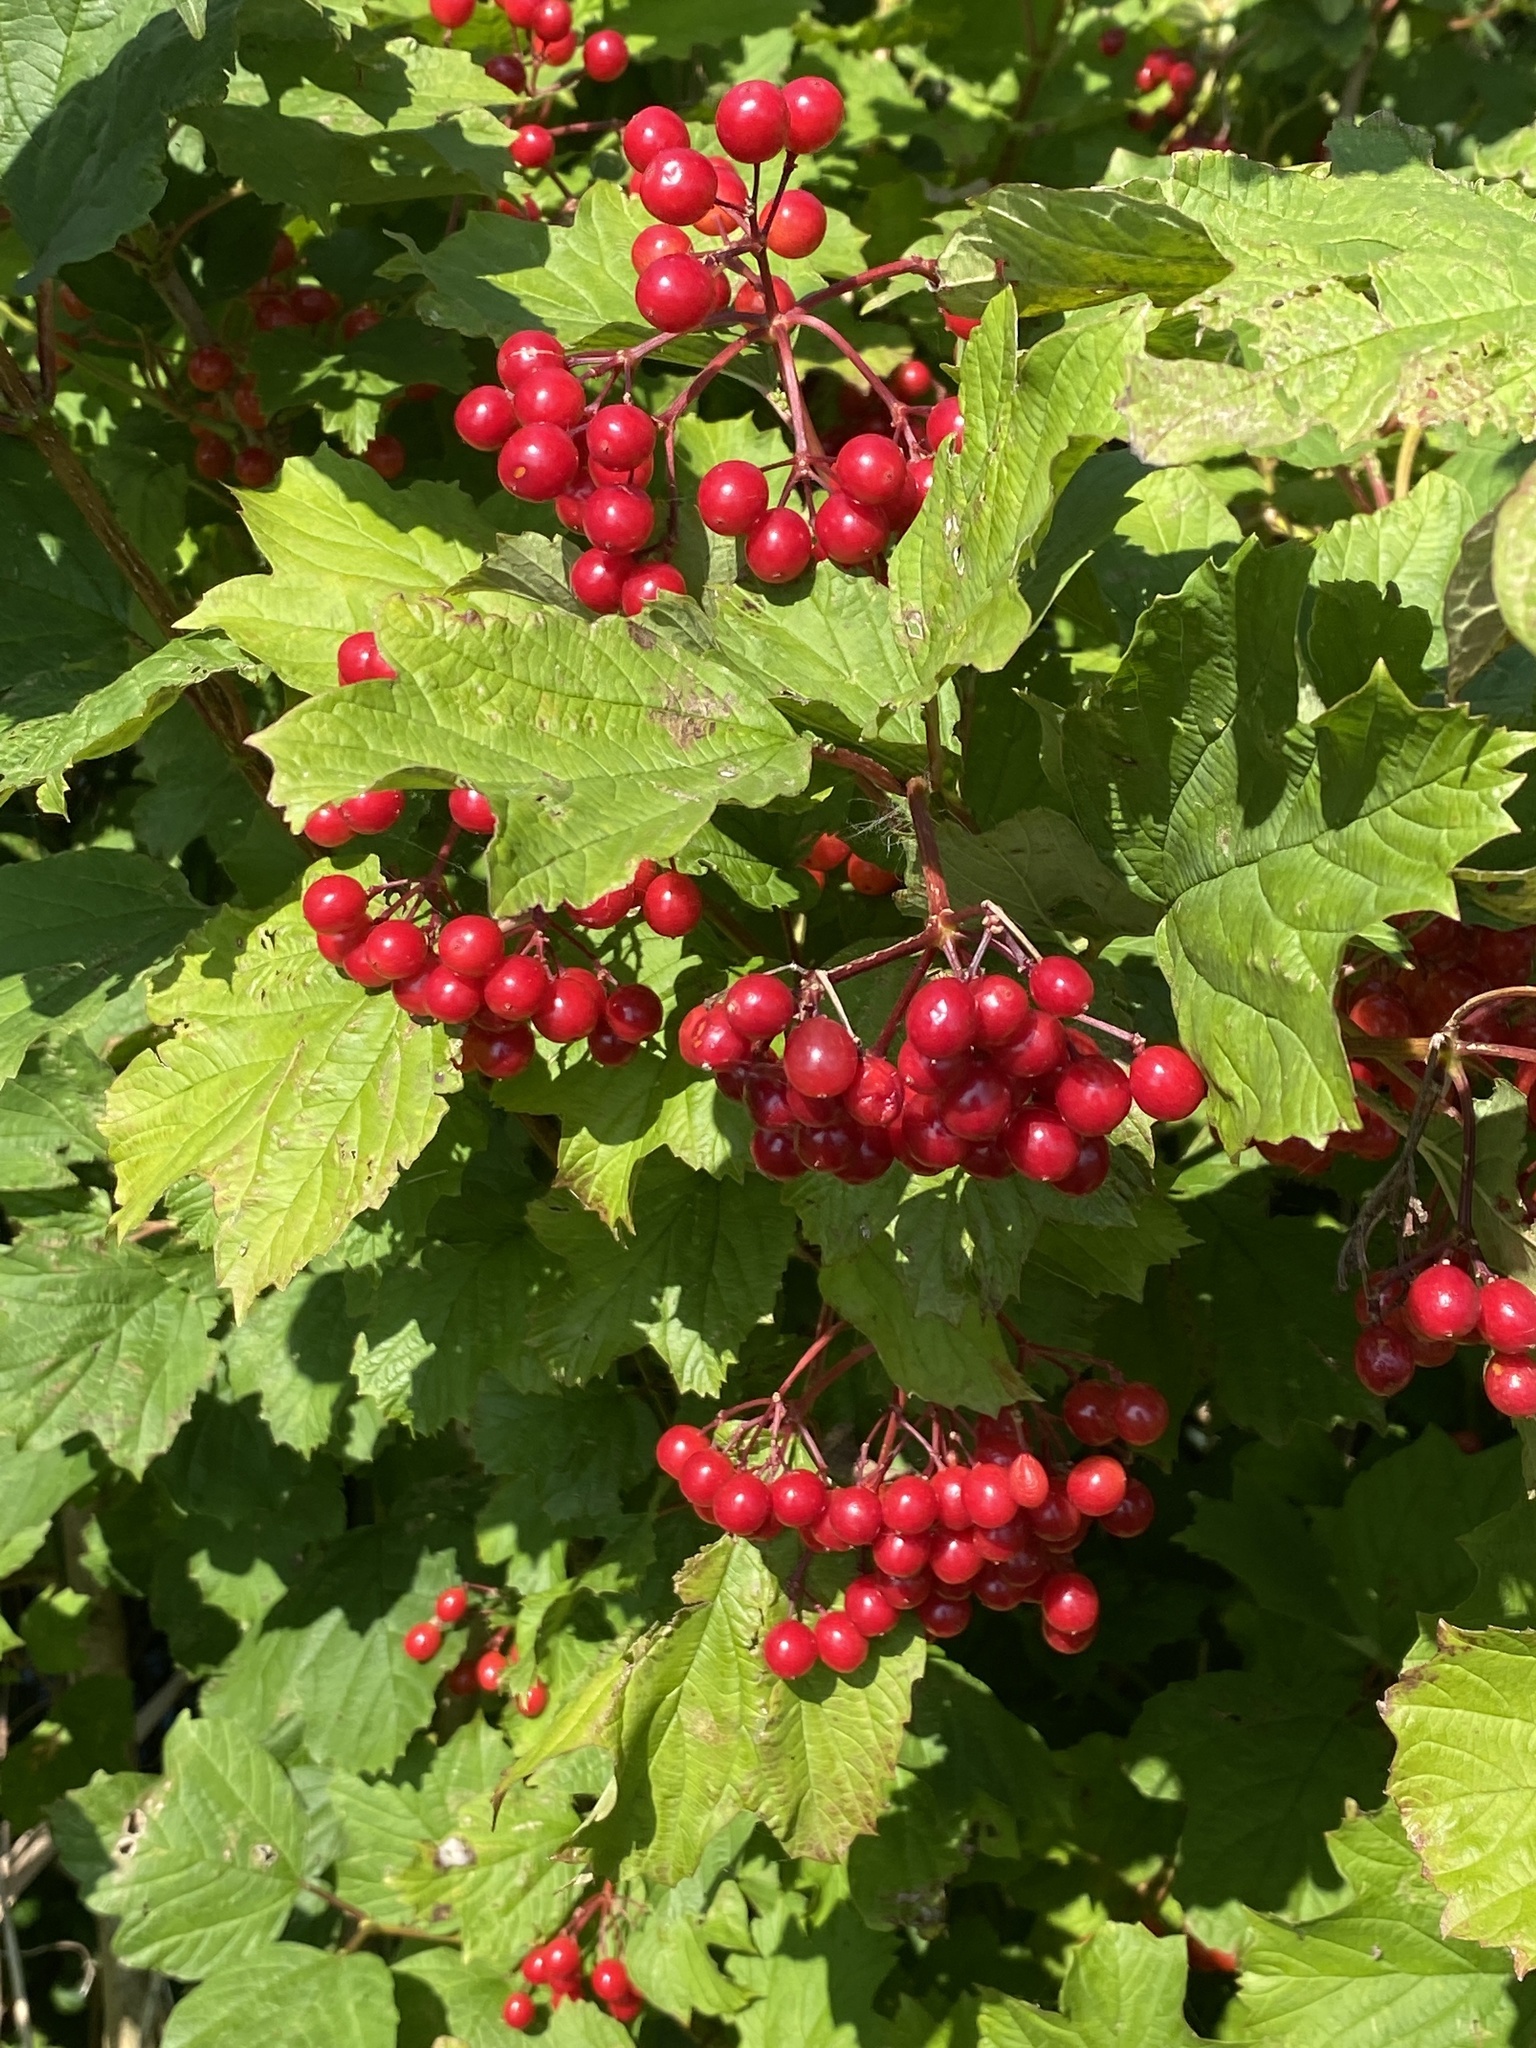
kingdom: Plantae
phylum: Tracheophyta
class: Magnoliopsida
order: Dipsacales
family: Viburnaceae
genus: Viburnum
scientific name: Viburnum opulus
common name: Guelder-rose
